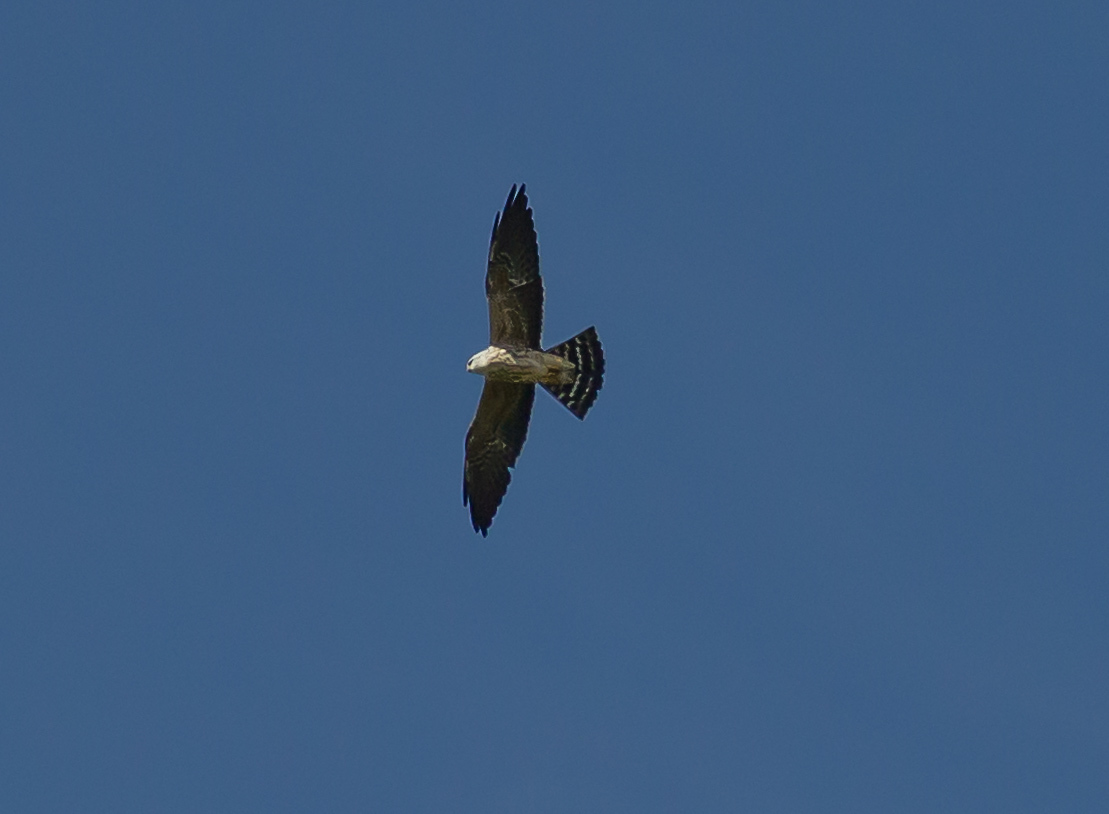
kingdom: Animalia
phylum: Chordata
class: Aves
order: Accipitriformes
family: Accipitridae
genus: Ictinia
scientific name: Ictinia mississippiensis
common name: Mississippi kite
